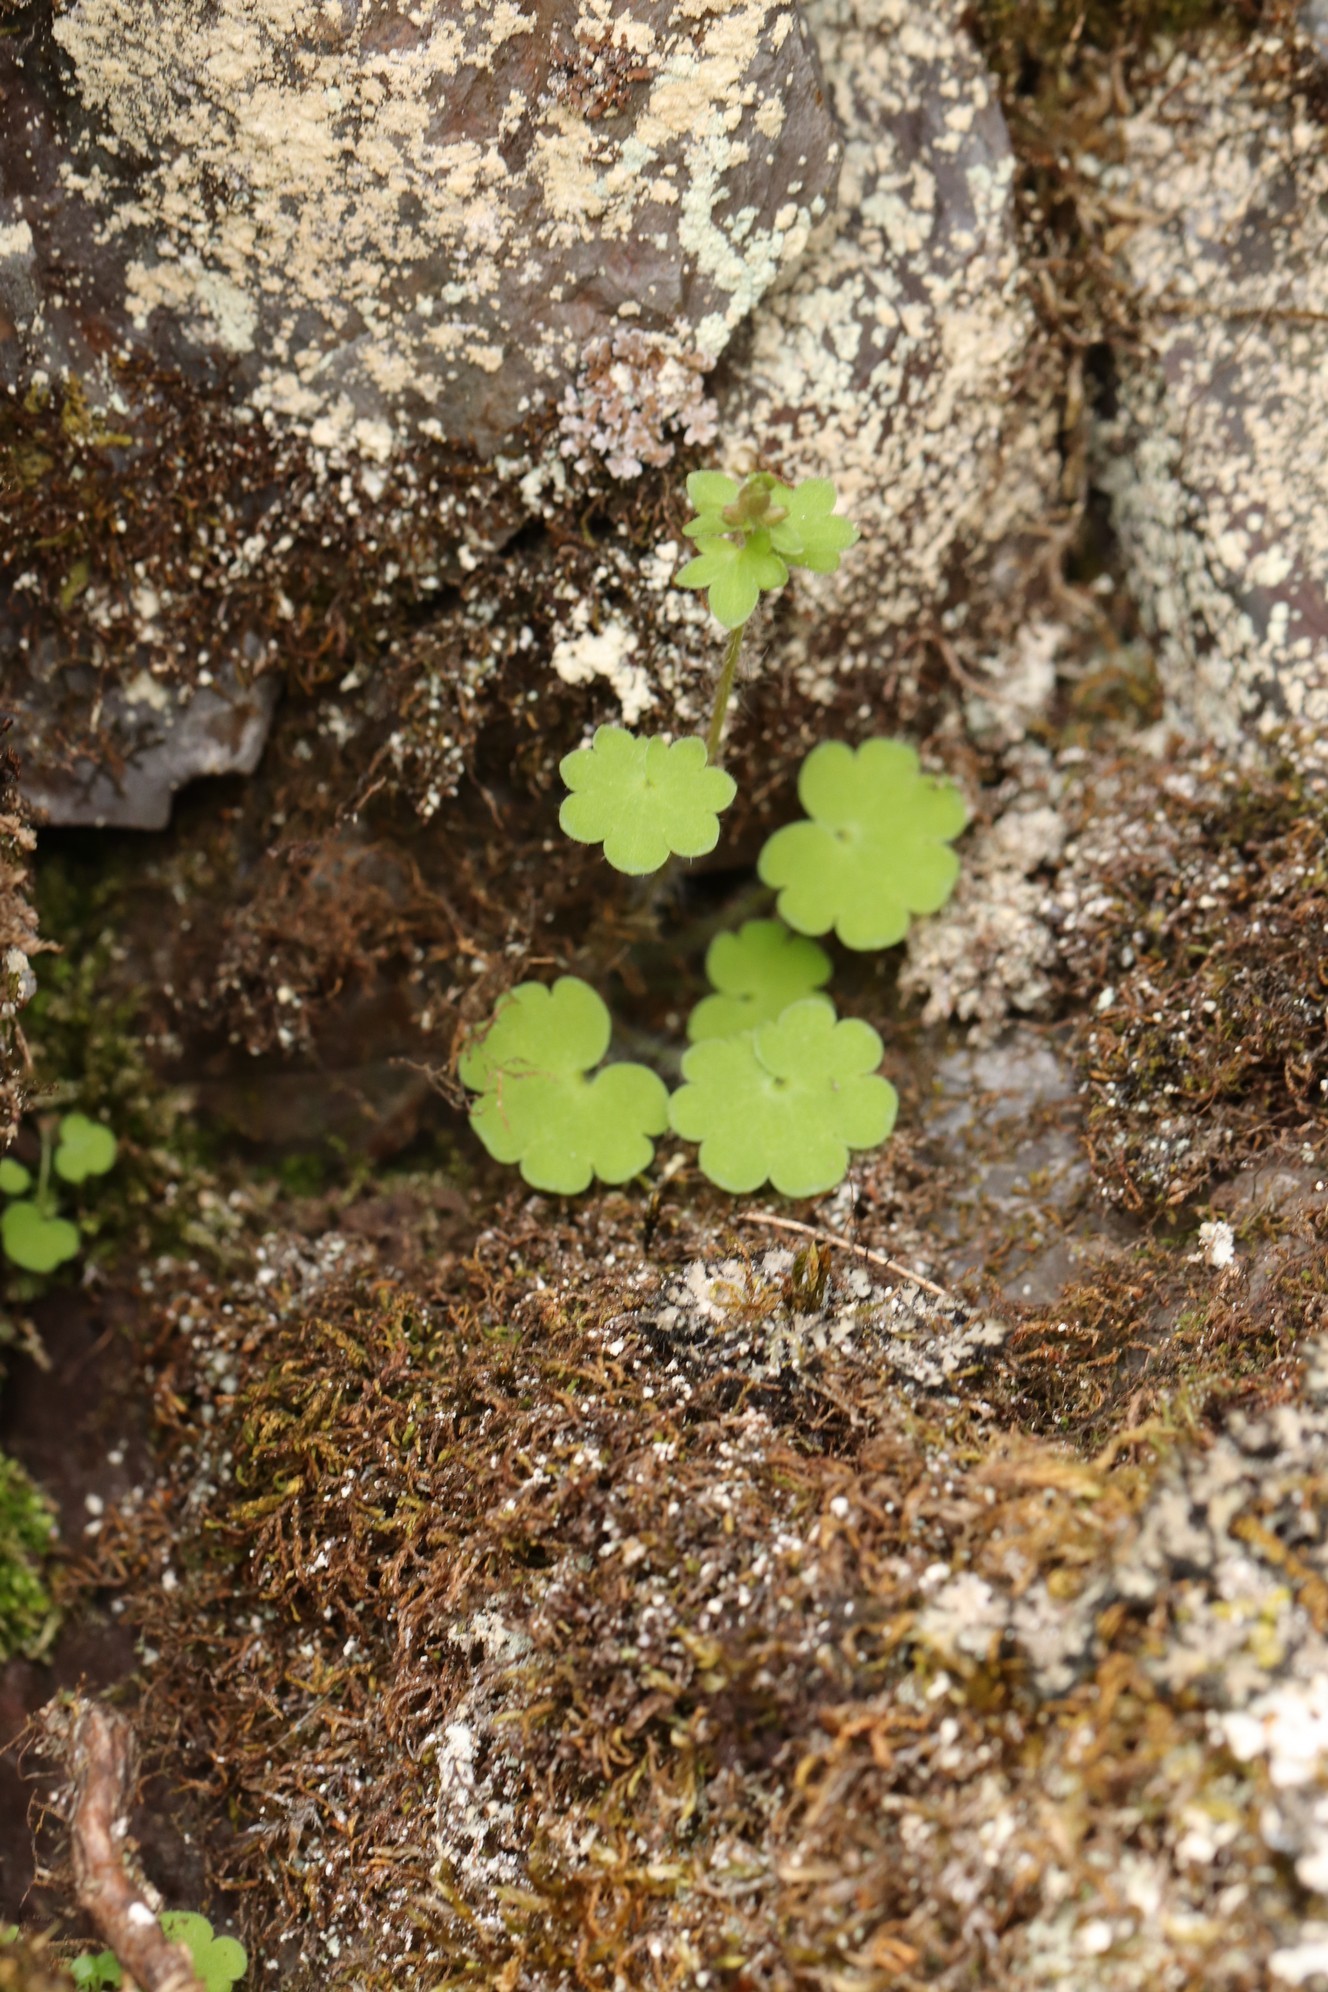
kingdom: Plantae
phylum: Tracheophyta
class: Magnoliopsida
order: Saxifragales
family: Saxifragaceae
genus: Saxifraga
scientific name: Saxifraga sibirica
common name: Siberian saxifrage
